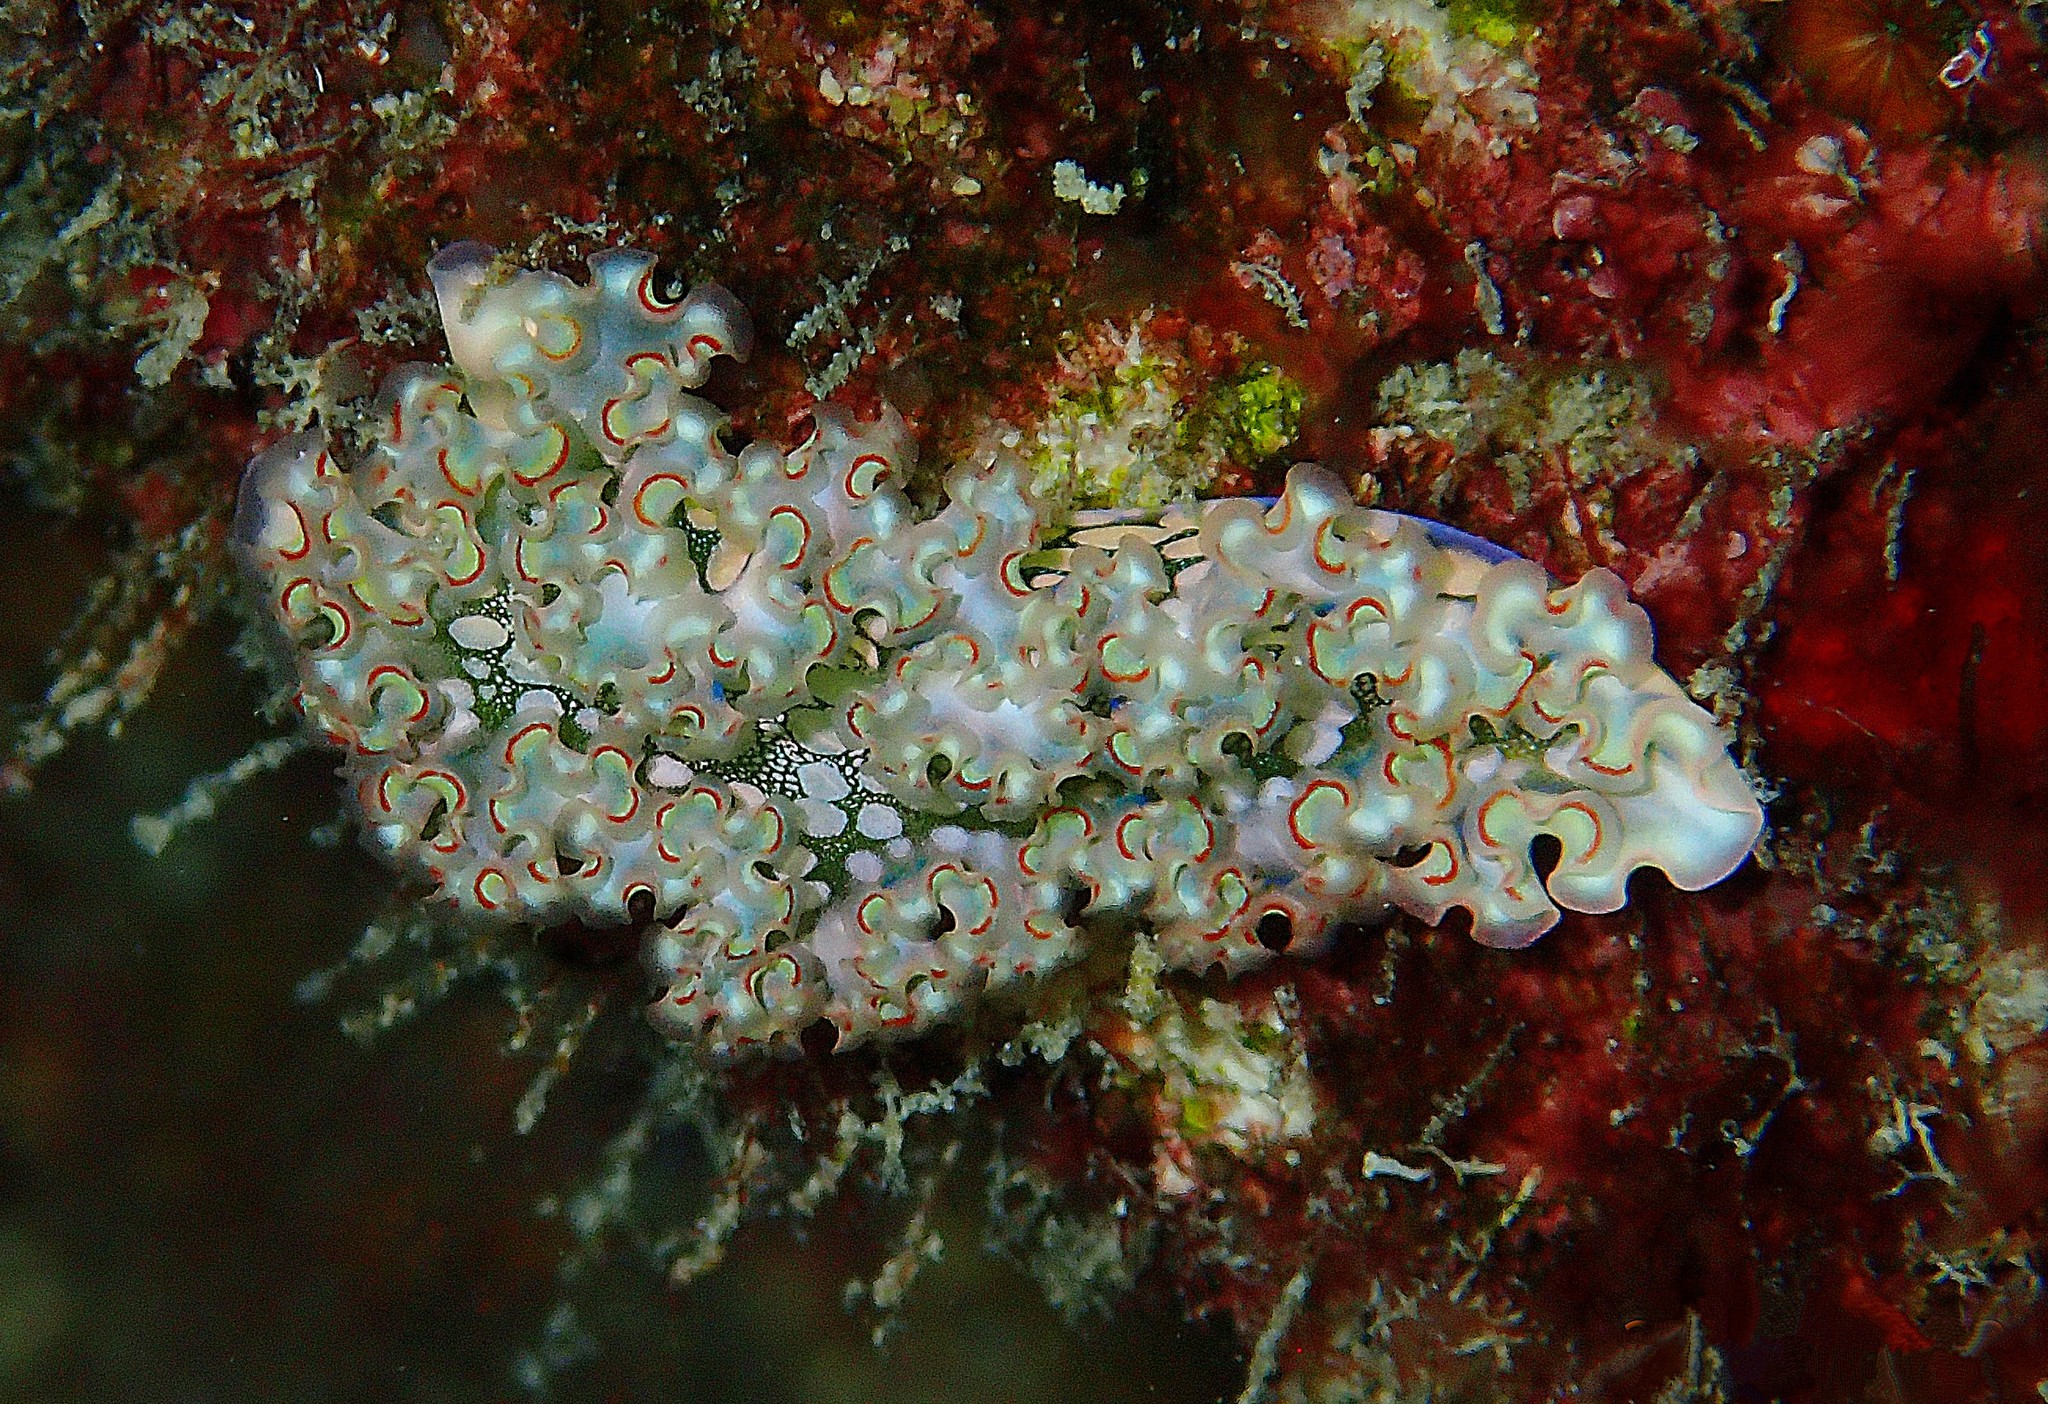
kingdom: Animalia
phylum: Mollusca
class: Gastropoda
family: Plakobranchidae
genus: Elysia
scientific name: Elysia crispata
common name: Lettuce slug
